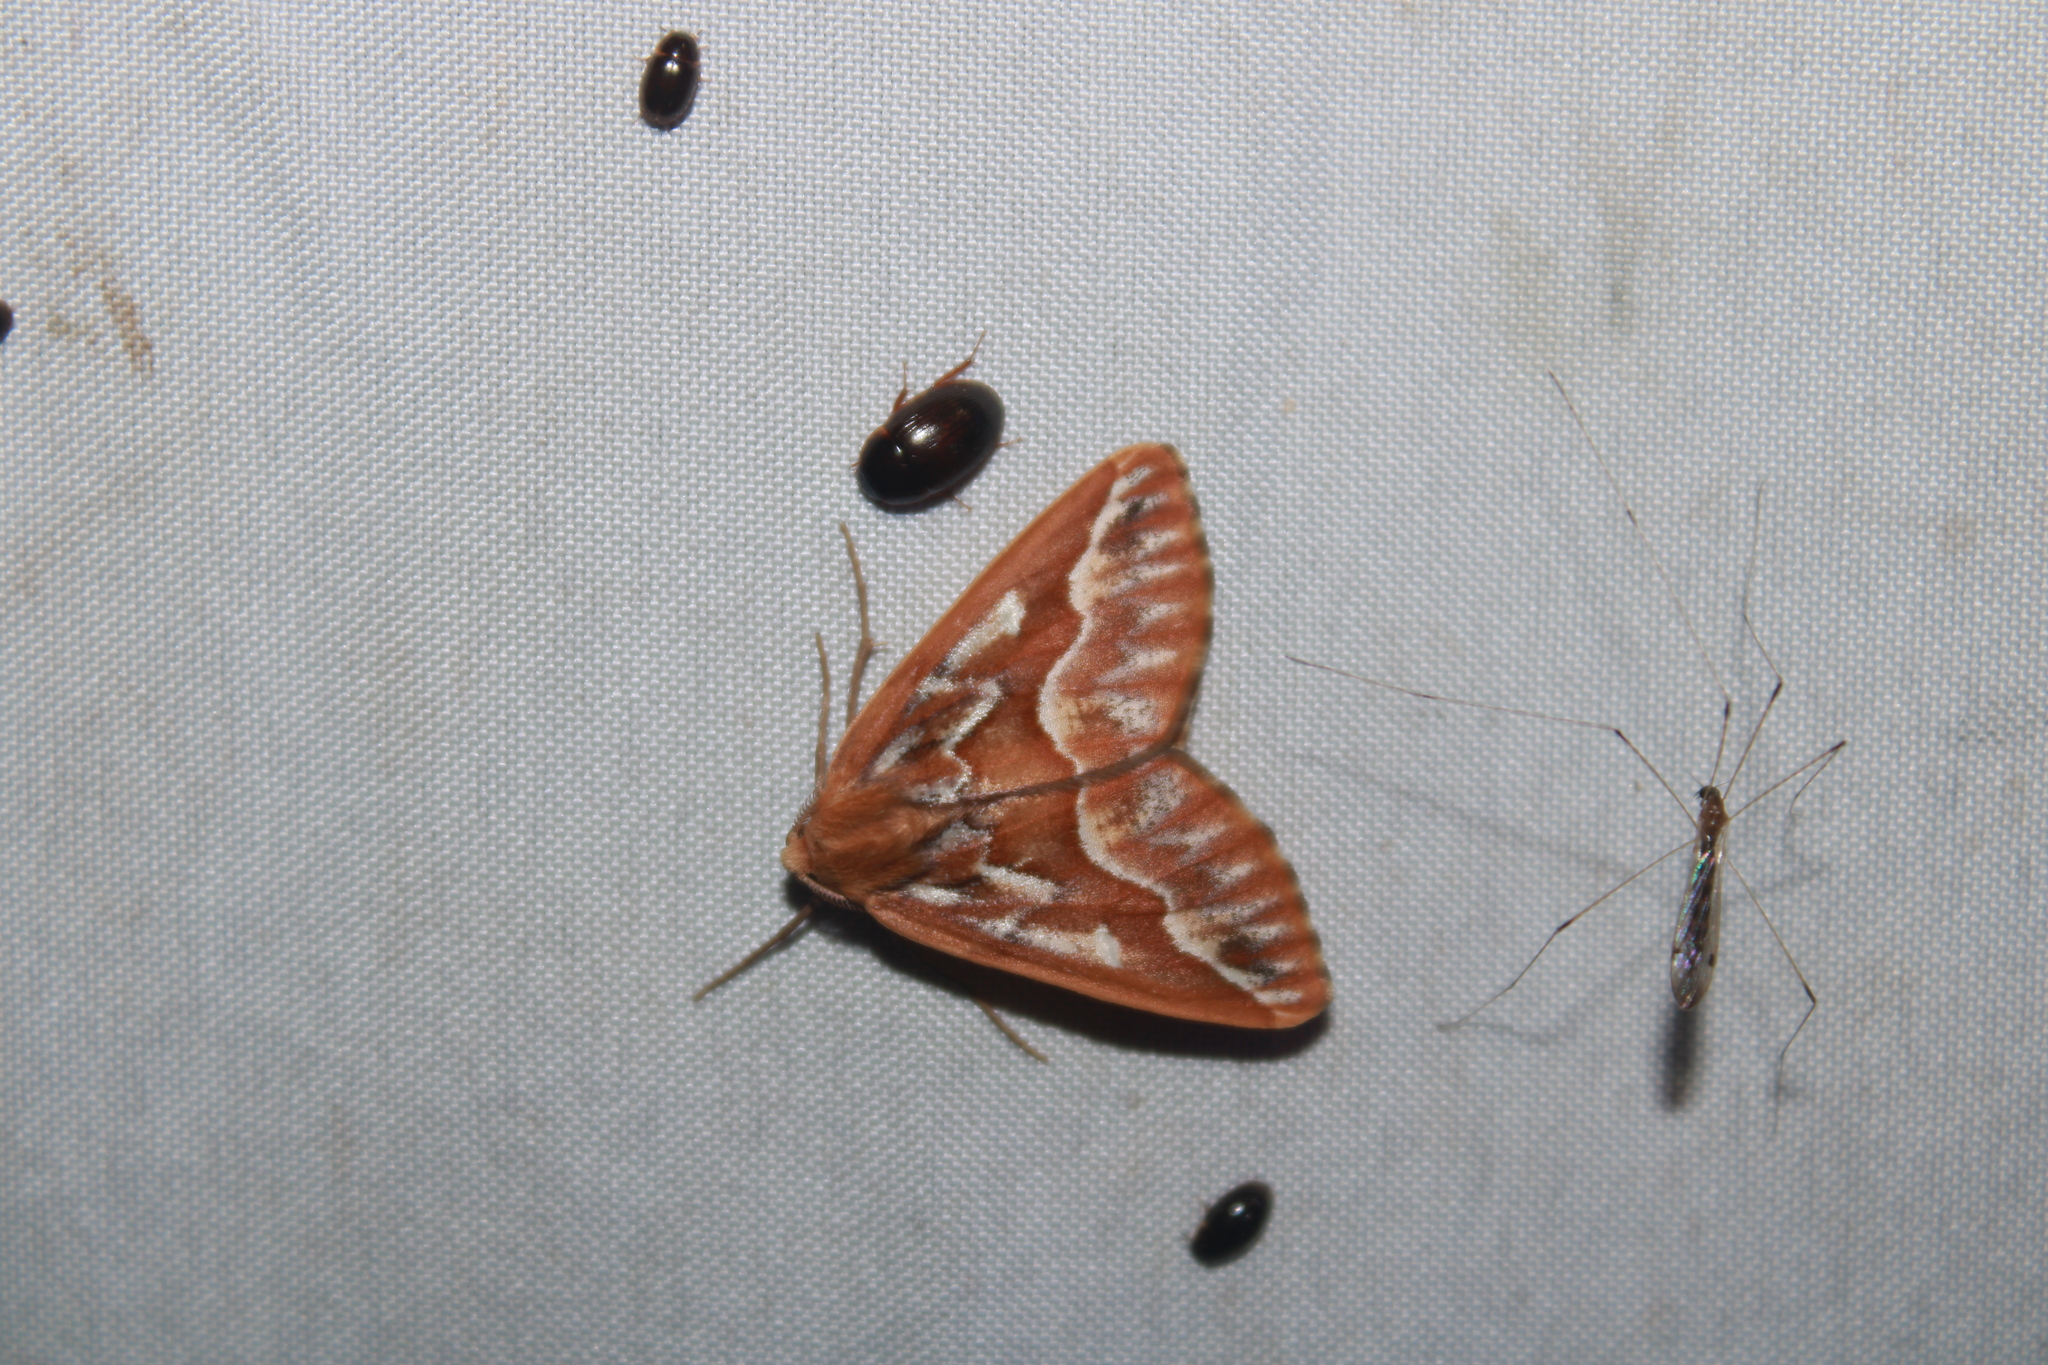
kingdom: Animalia
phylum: Arthropoda
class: Insecta
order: Lepidoptera
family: Geometridae
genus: Caripeta
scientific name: Caripeta piniata
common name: Northern pine looper moth
